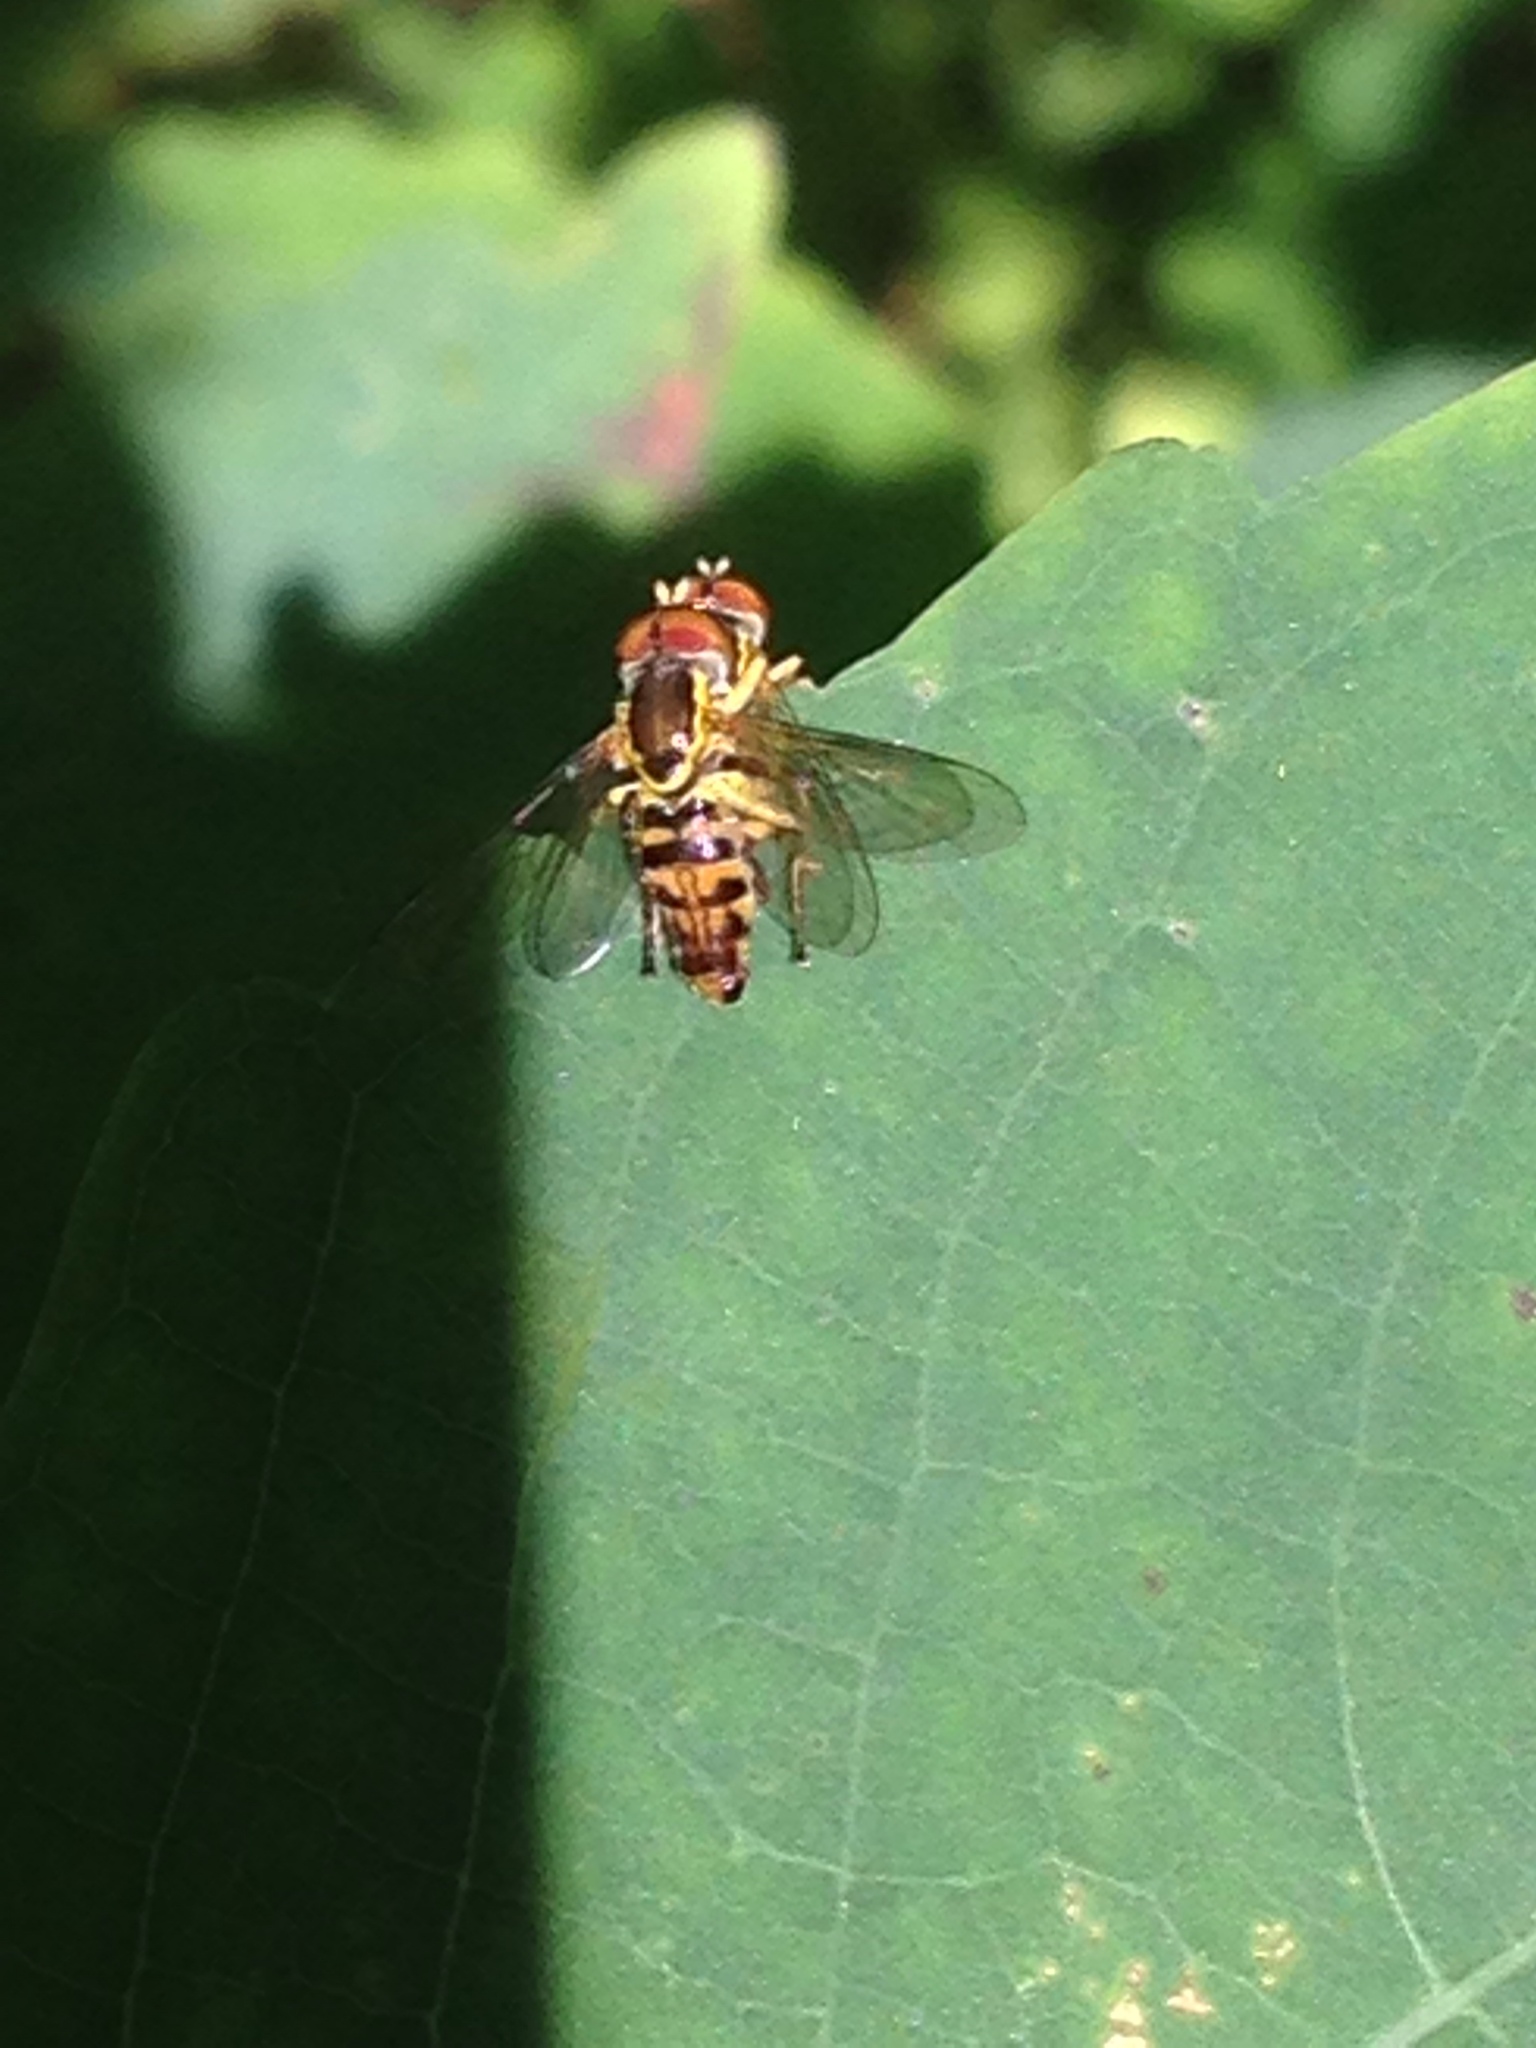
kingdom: Animalia
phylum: Arthropoda
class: Insecta
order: Diptera
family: Syrphidae
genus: Toxomerus
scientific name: Toxomerus geminatus
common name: Eastern calligrapher
